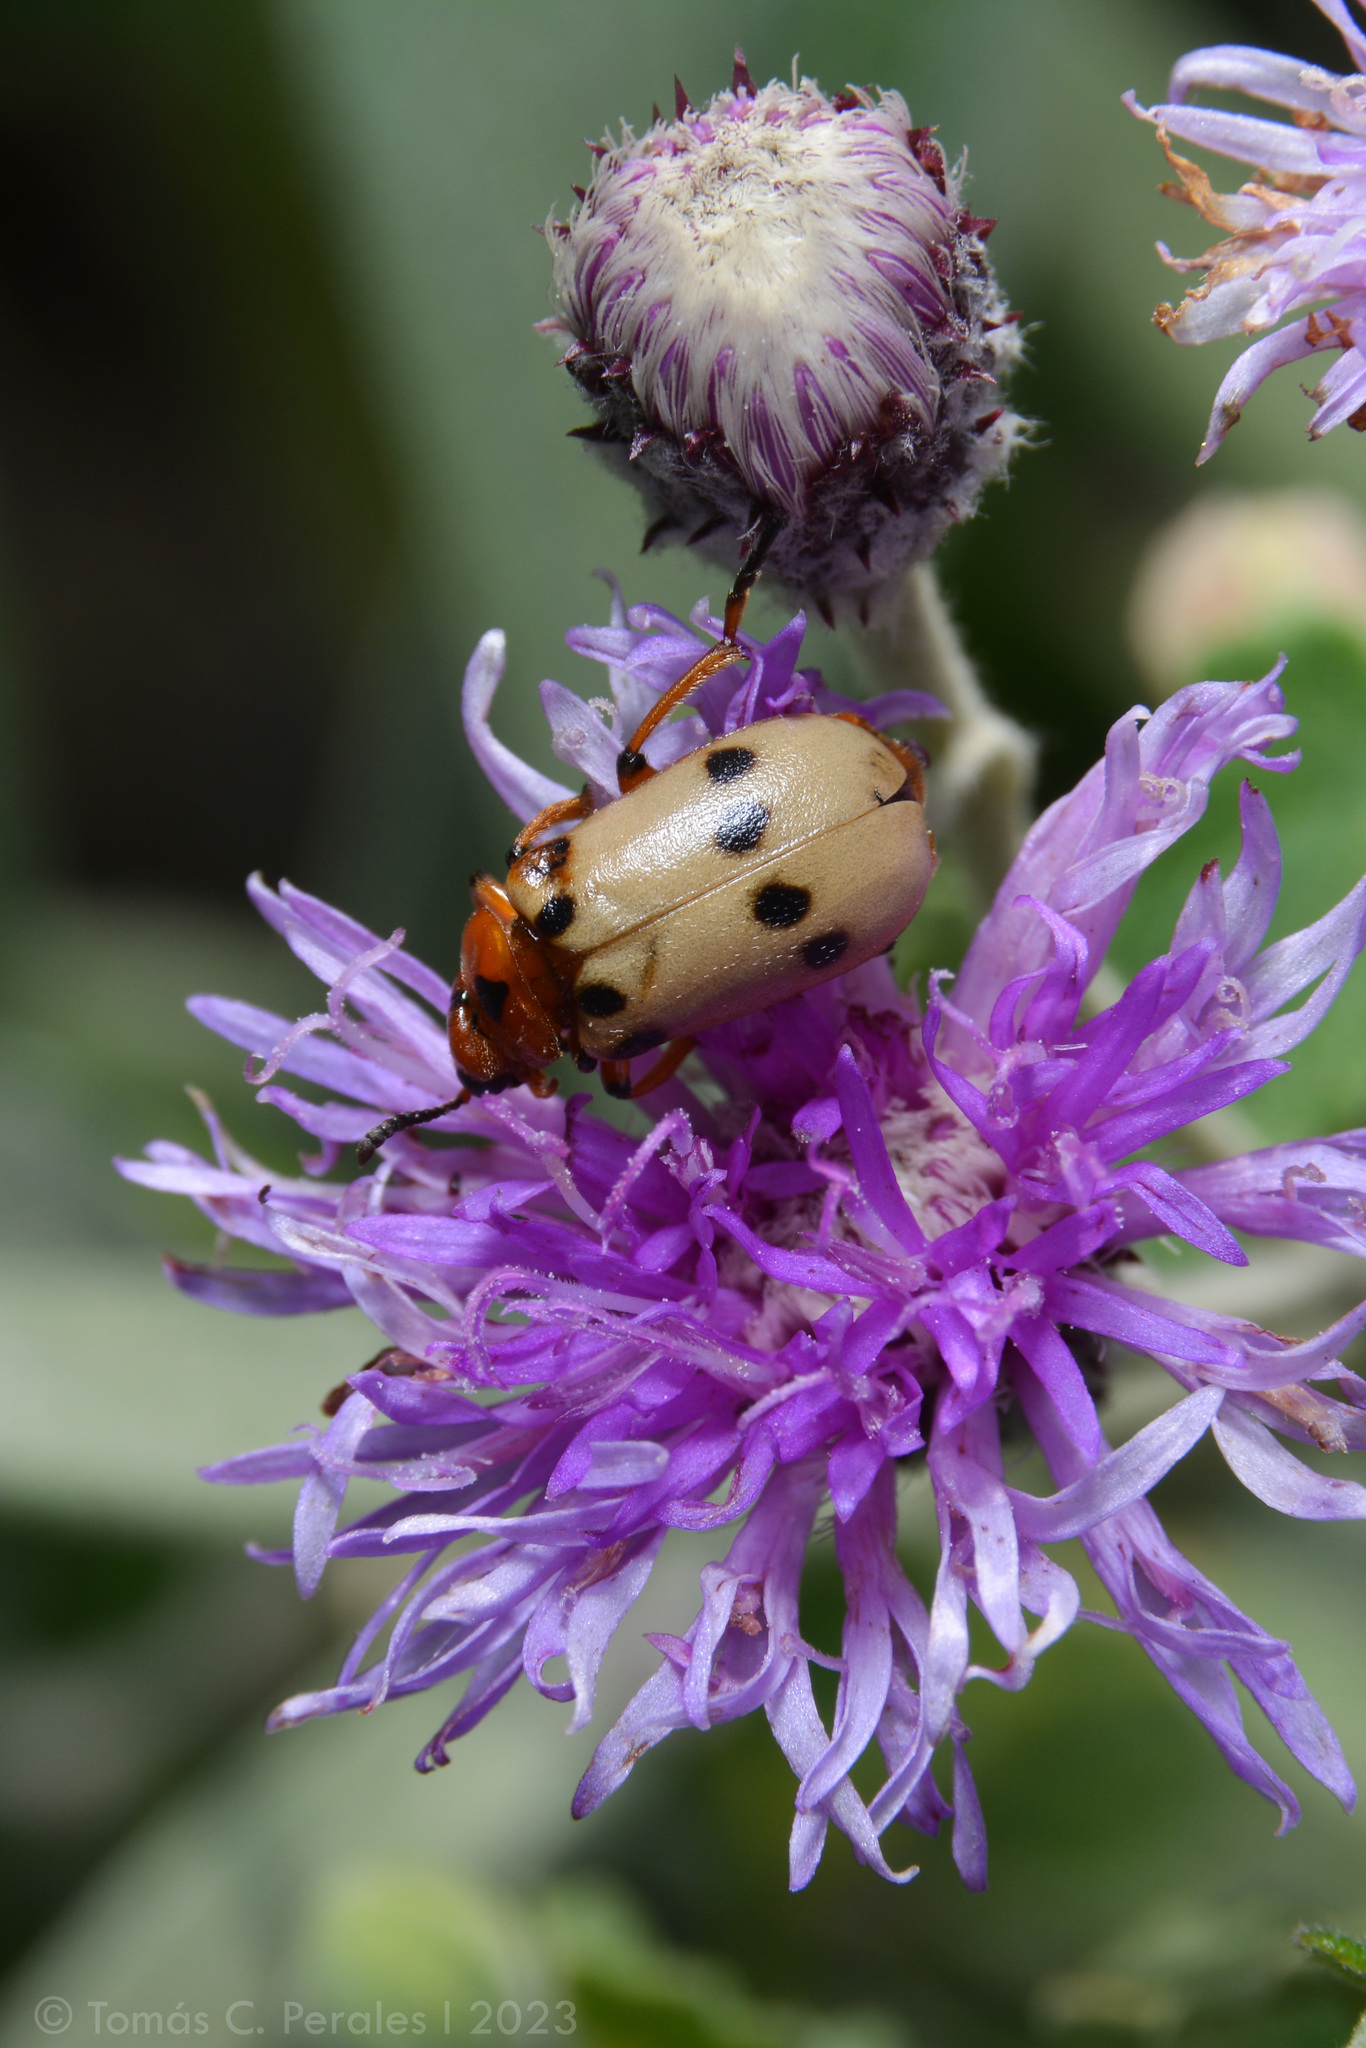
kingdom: Animalia
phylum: Arthropoda
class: Insecta
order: Coleoptera
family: Meloidae
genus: Tetraonyx
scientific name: Tetraonyx
